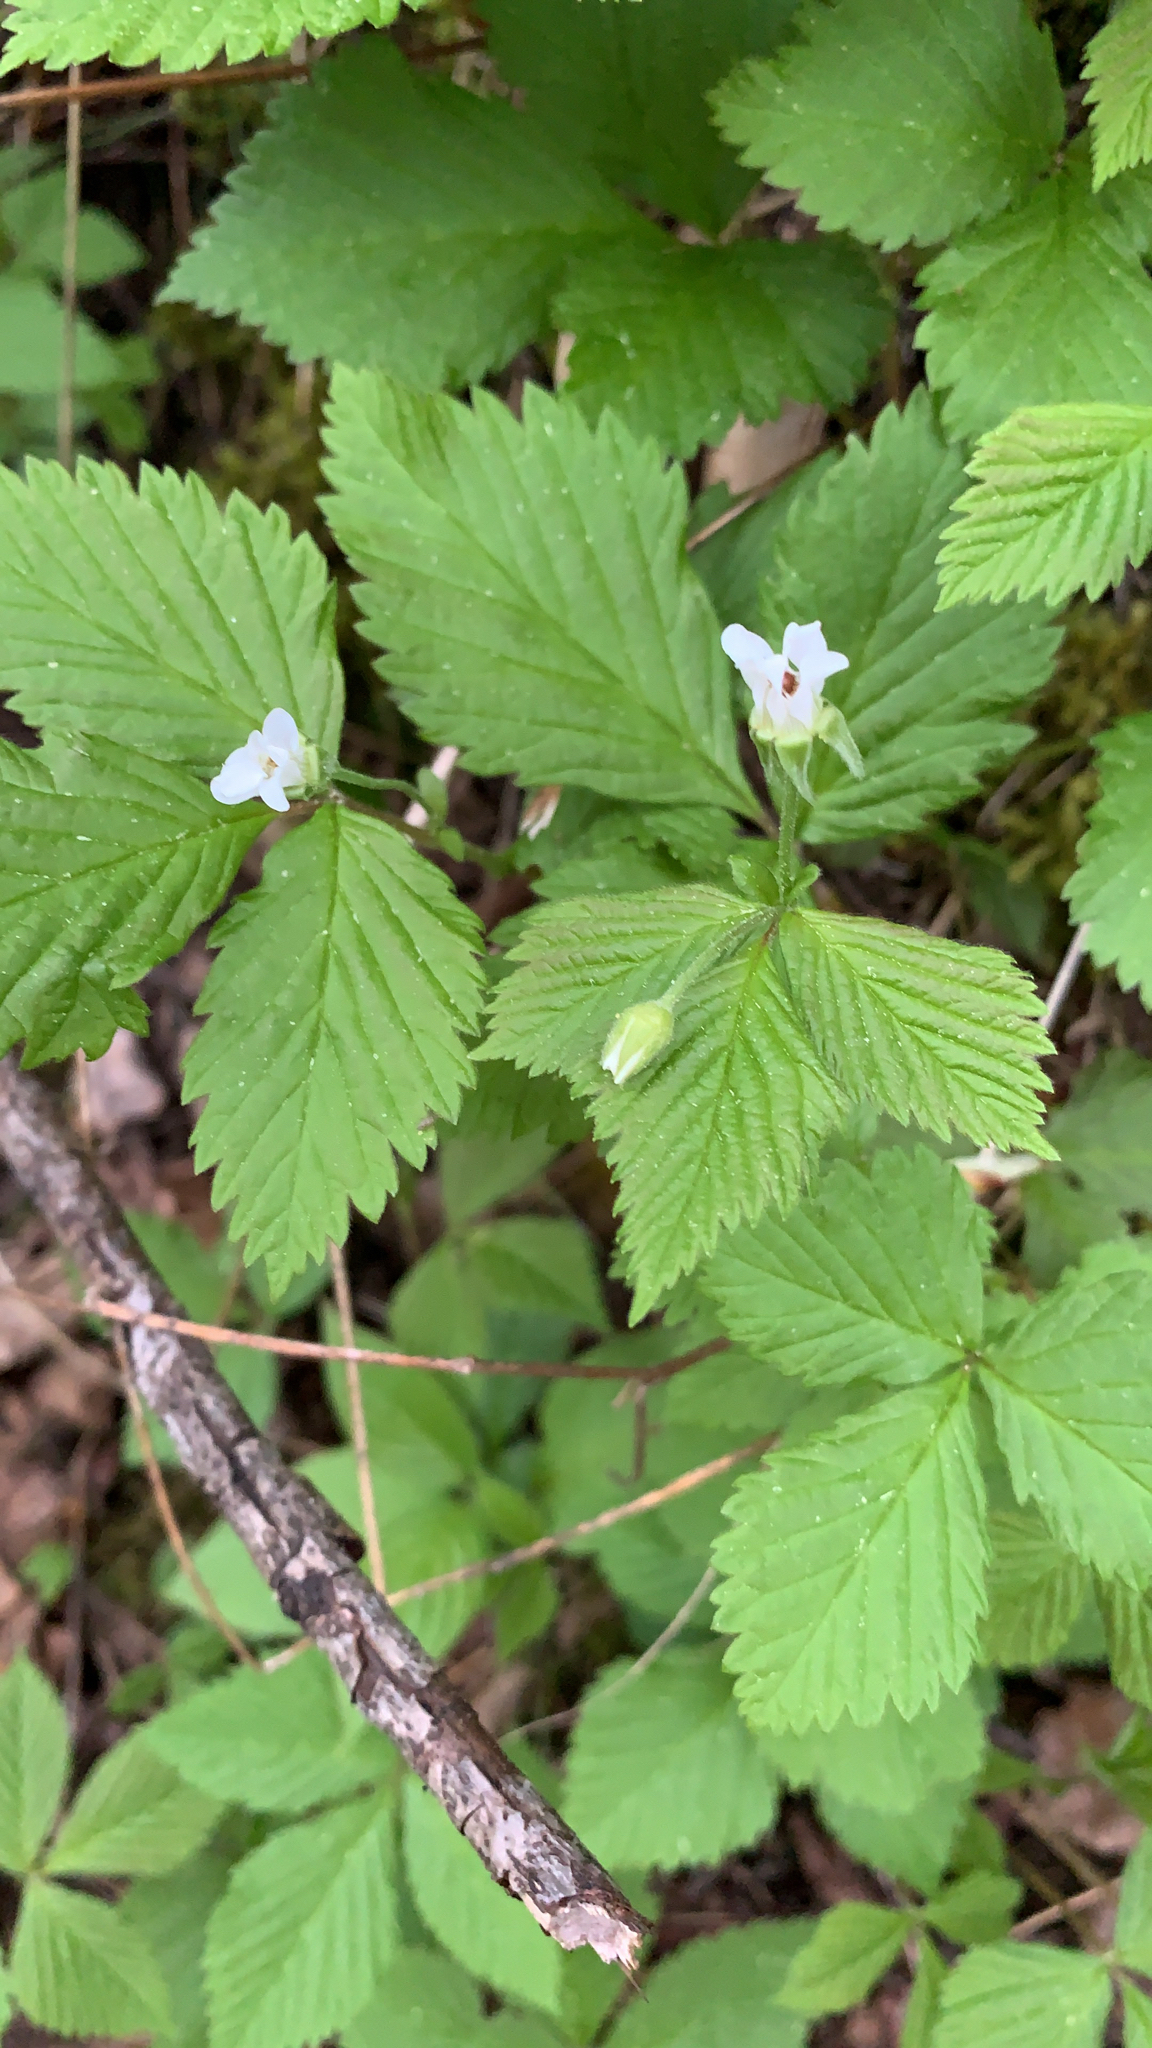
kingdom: Plantae
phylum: Tracheophyta
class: Magnoliopsida
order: Rosales
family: Rosaceae
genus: Rubus
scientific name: Rubus pubescens
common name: Dwarf raspberry
